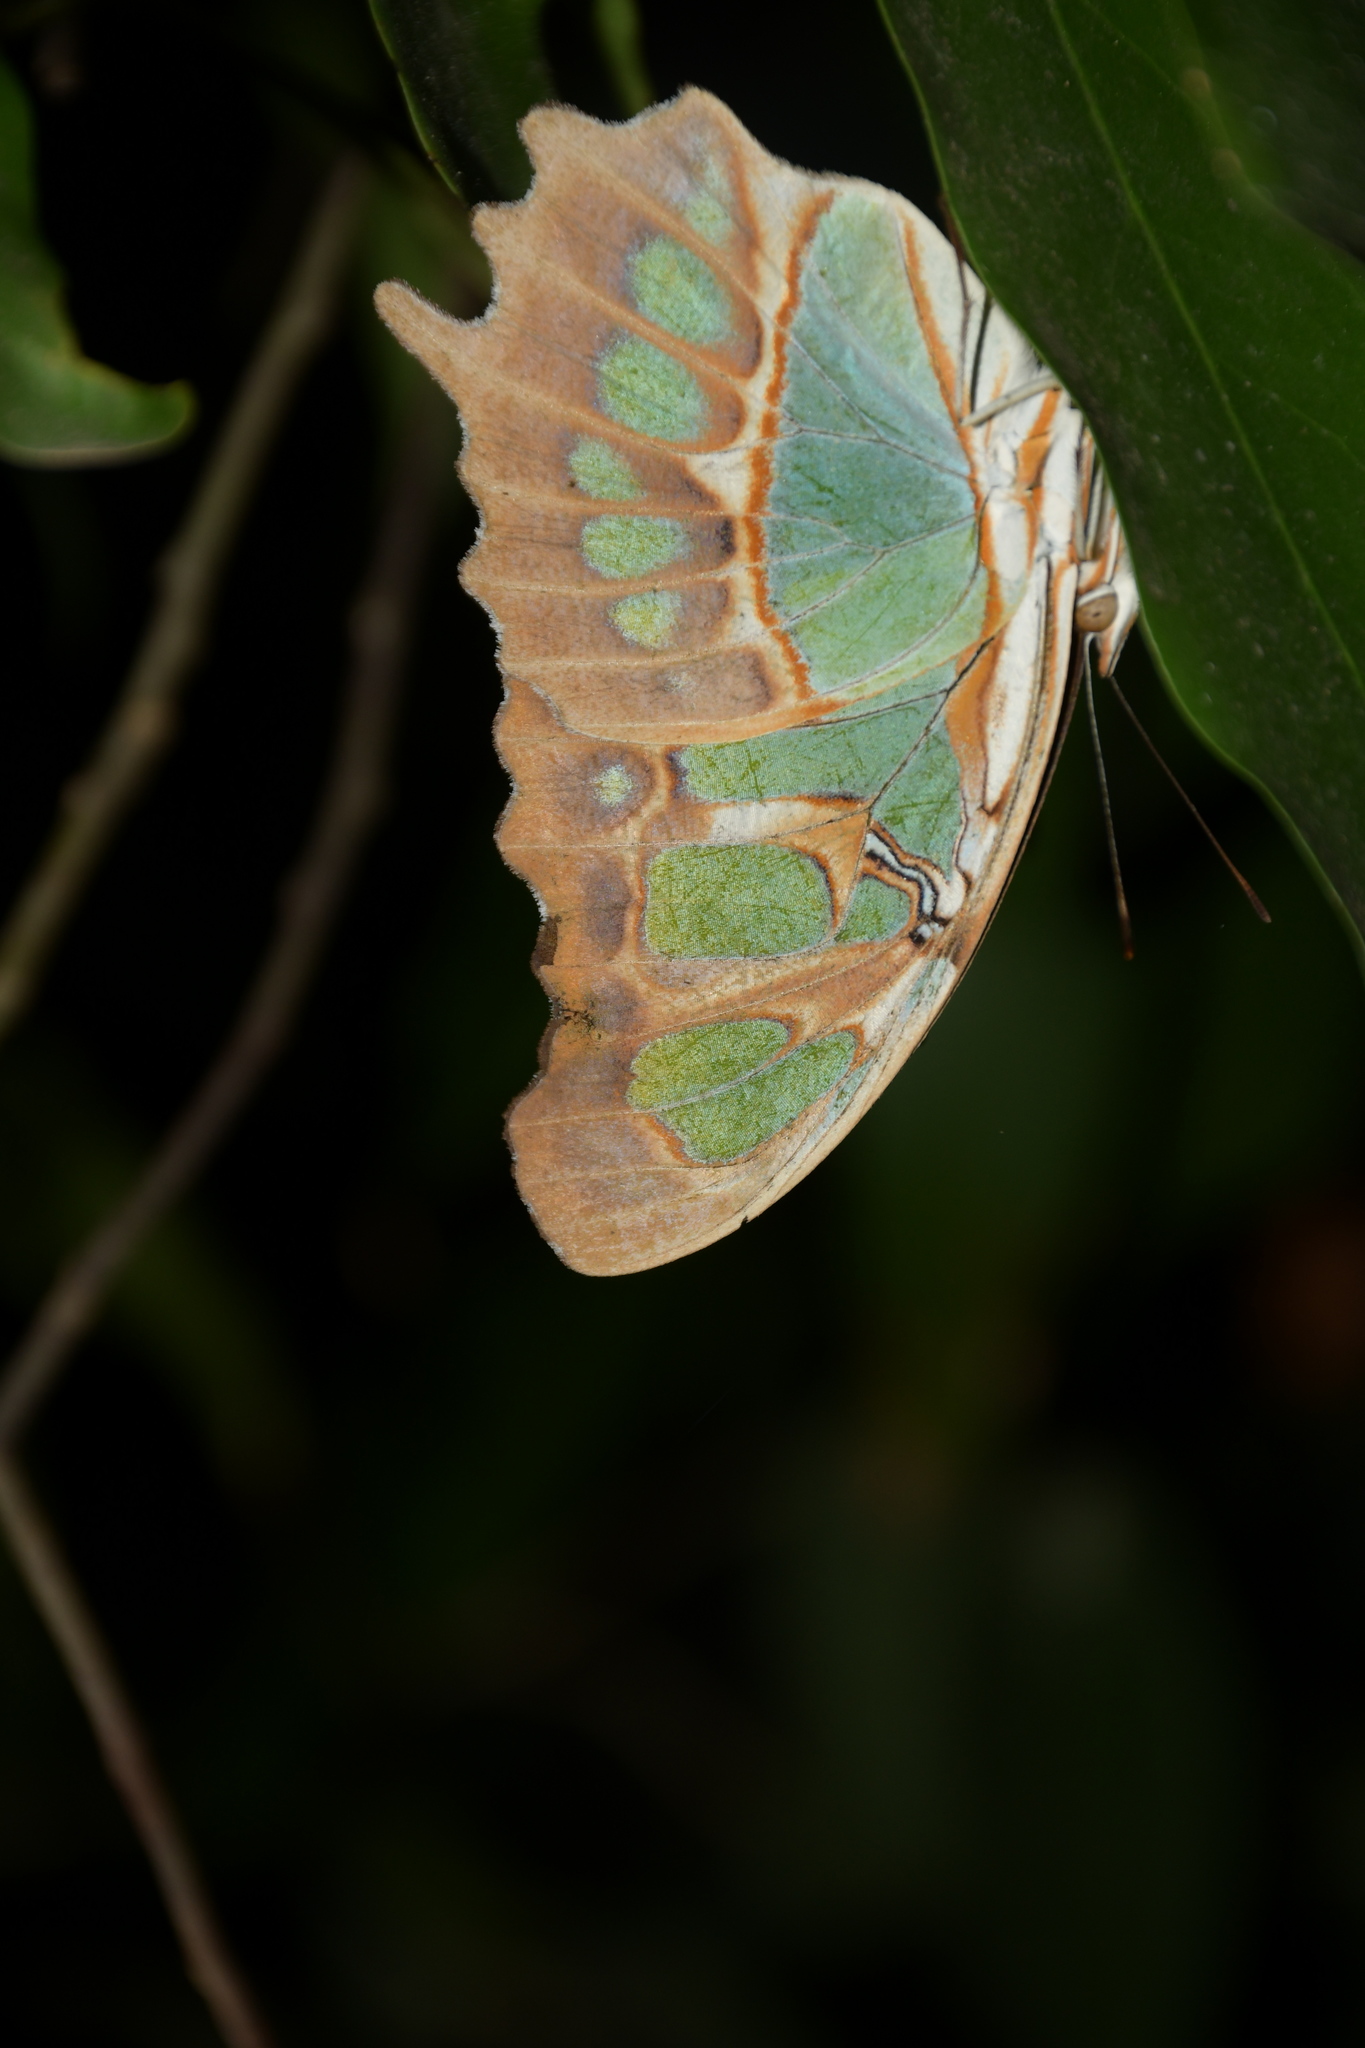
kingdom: Animalia
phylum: Arthropoda
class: Insecta
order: Lepidoptera
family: Nymphalidae
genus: Siproeta
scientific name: Siproeta stelenes
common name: Malachite
